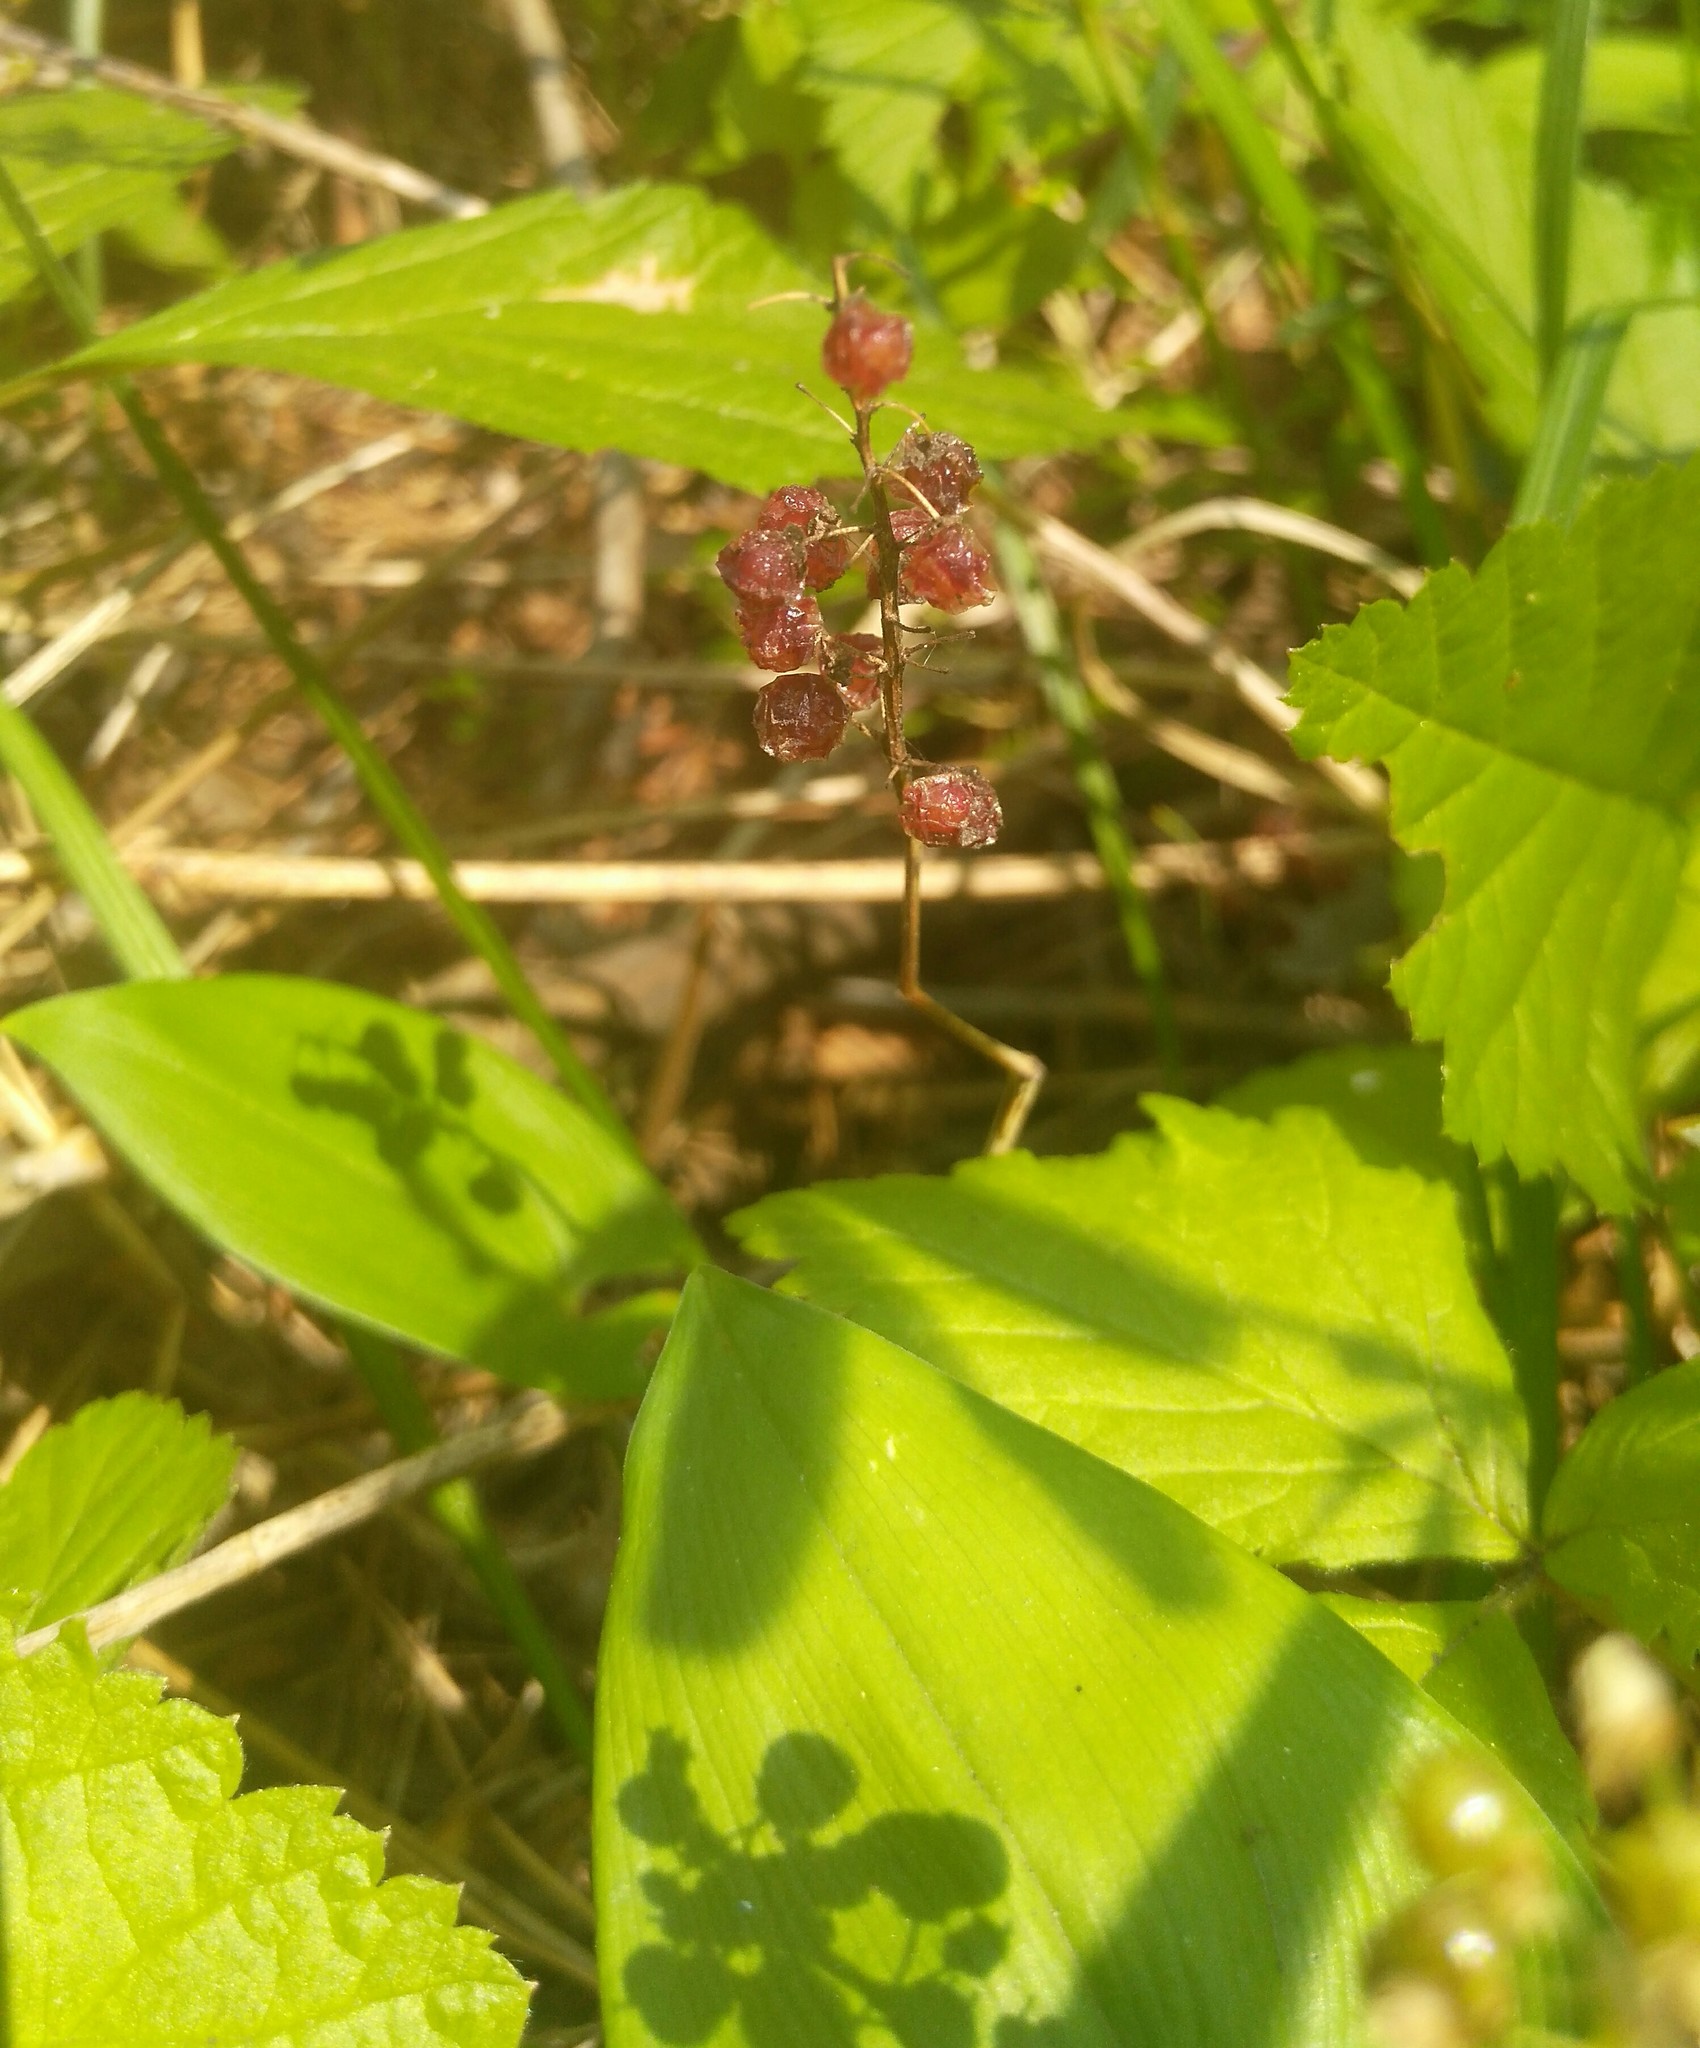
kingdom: Plantae
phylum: Tracheophyta
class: Liliopsida
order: Asparagales
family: Asparagaceae
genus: Maianthemum
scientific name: Maianthemum bifolium
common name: May lily
